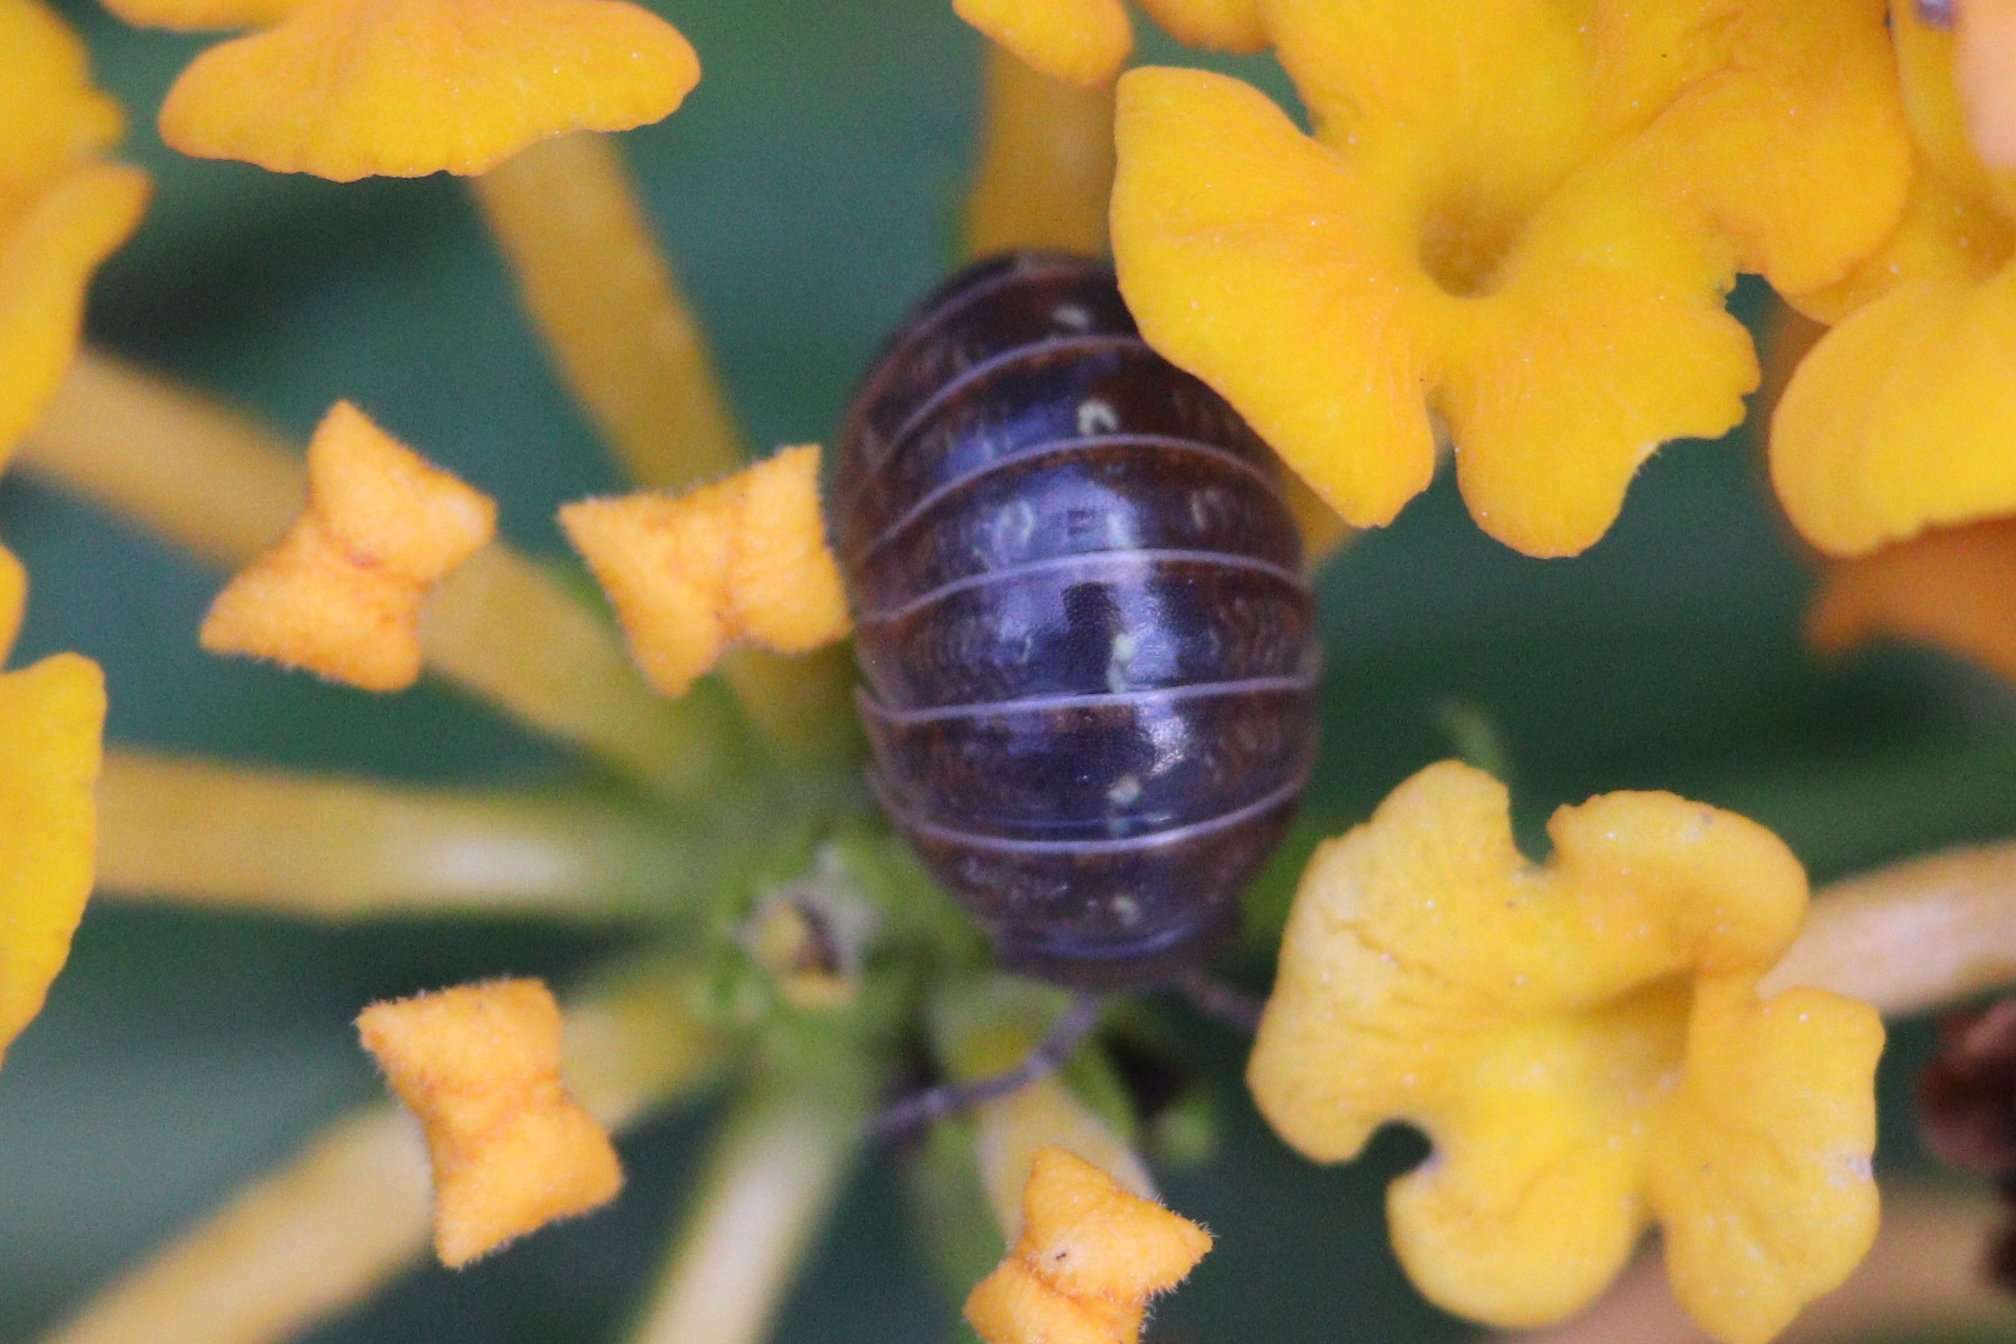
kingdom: Animalia
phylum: Arthropoda
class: Malacostraca
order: Isopoda
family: Armadillidiidae
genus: Armadillidium
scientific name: Armadillidium vulgare
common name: Common pill woodlouse
